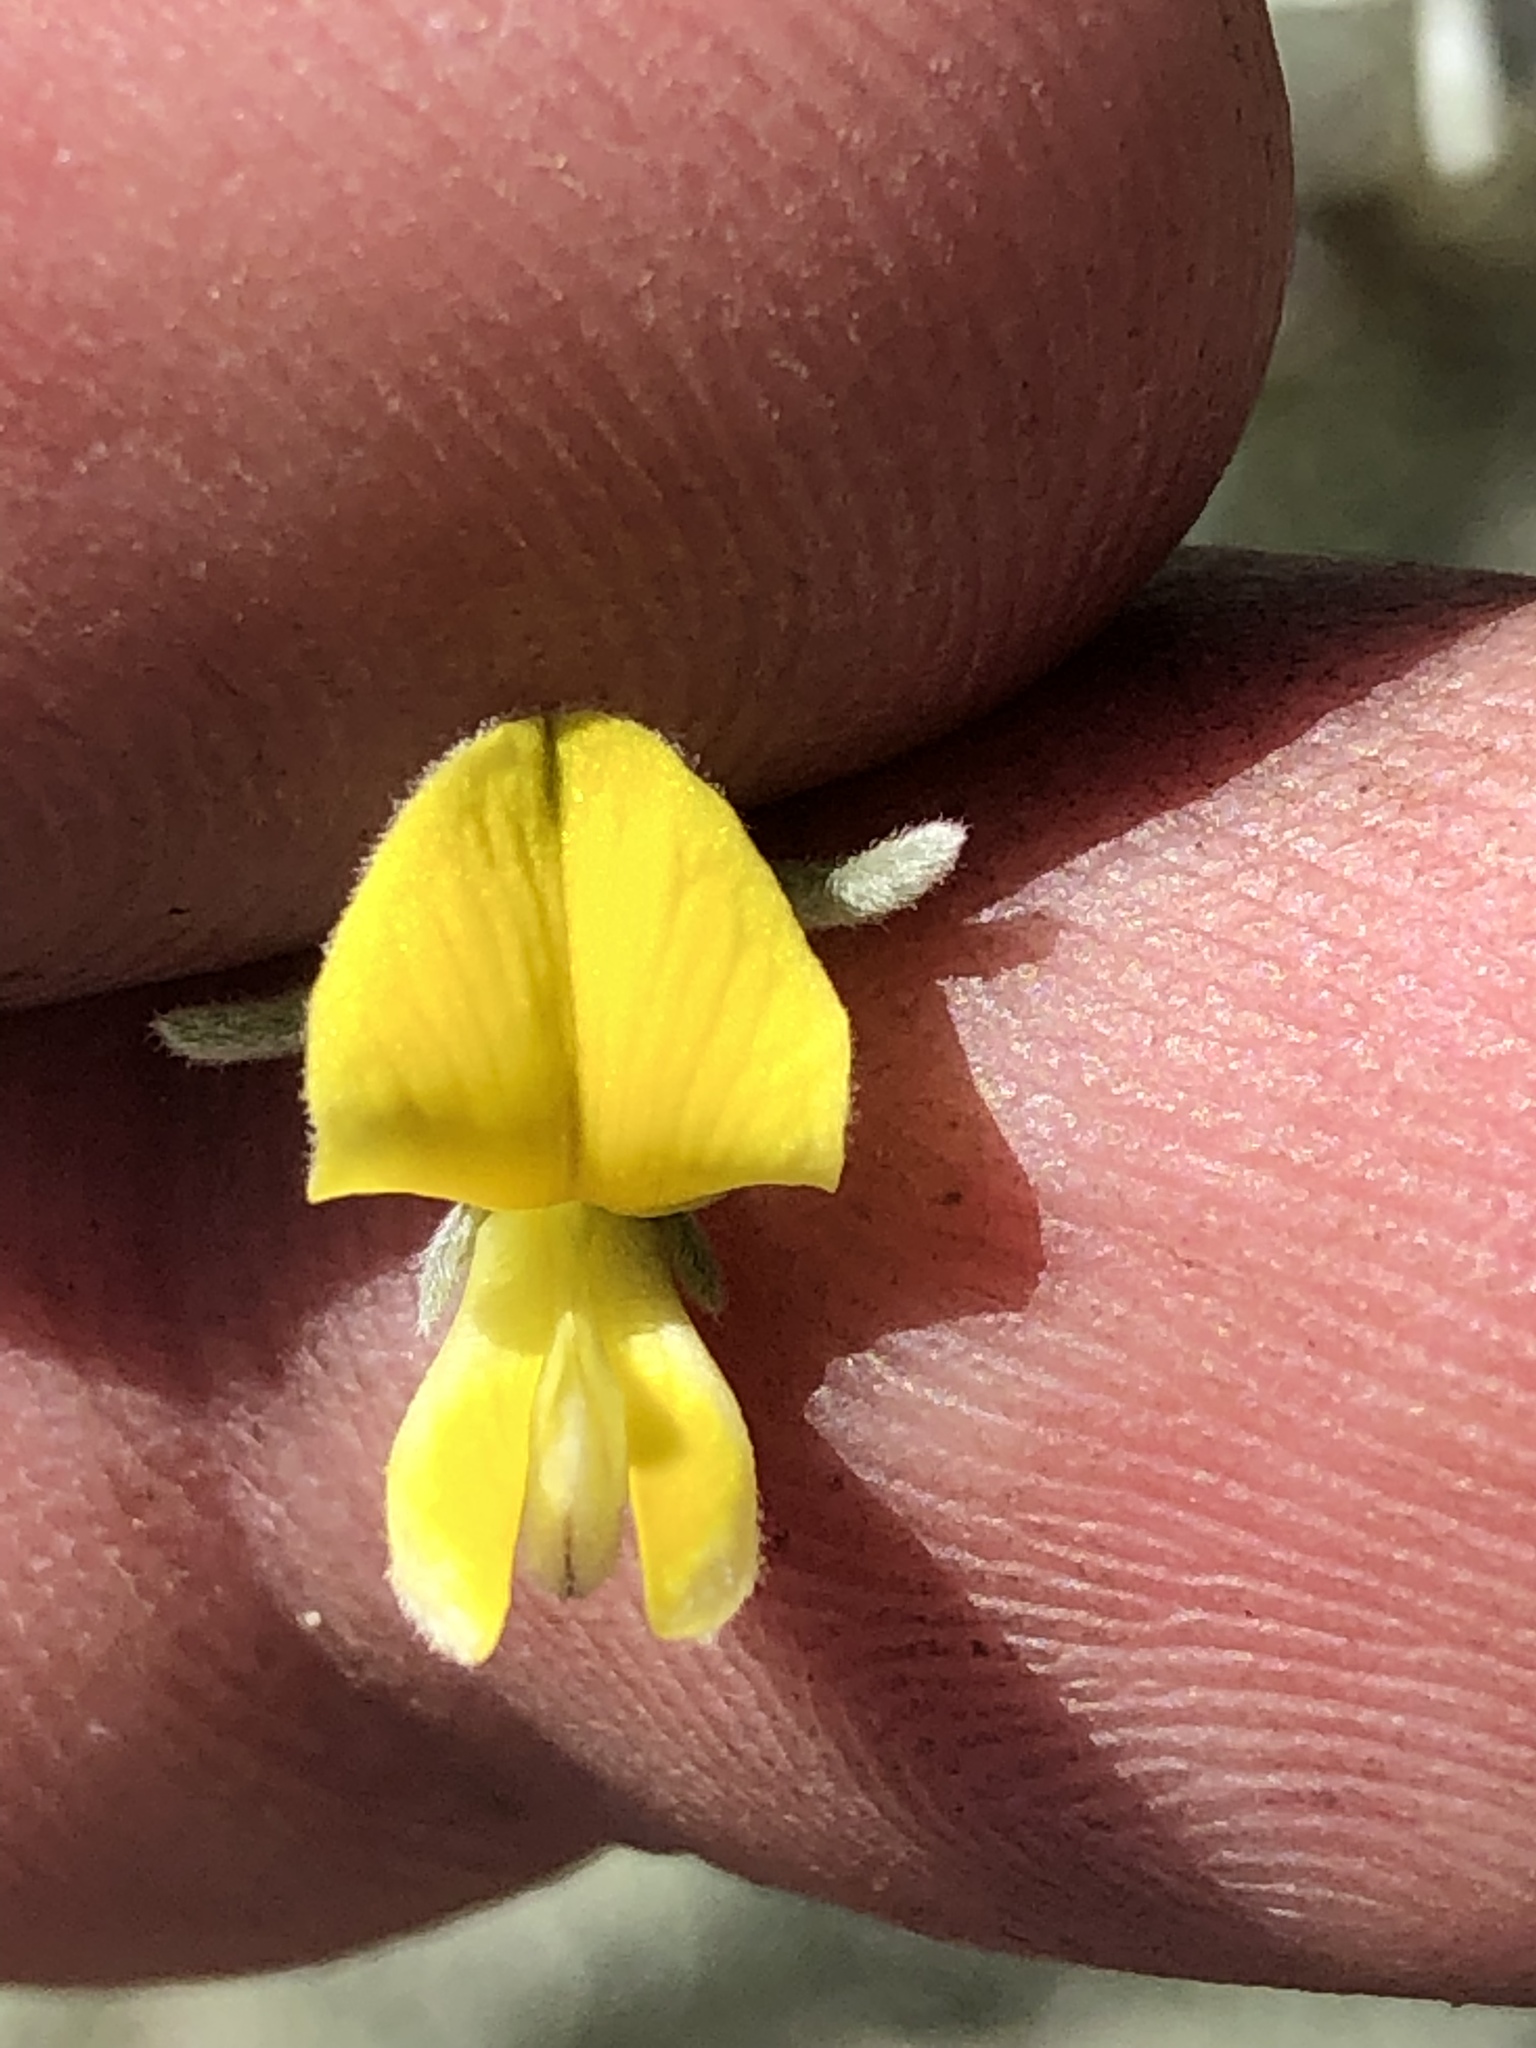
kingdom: Plantae
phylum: Tracheophyta
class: Magnoliopsida
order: Fabales
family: Fabaceae
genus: Aspalathus
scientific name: Aspalathus pedunculata
